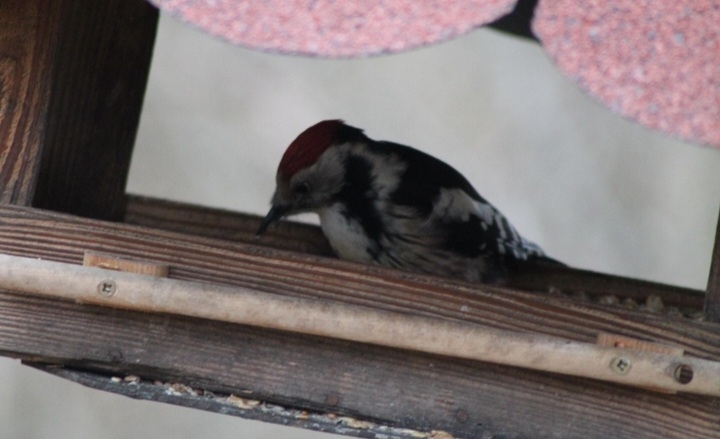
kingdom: Animalia
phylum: Chordata
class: Aves
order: Piciformes
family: Picidae
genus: Dendrocoptes
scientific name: Dendrocoptes medius
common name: Middle spotted woodpecker
